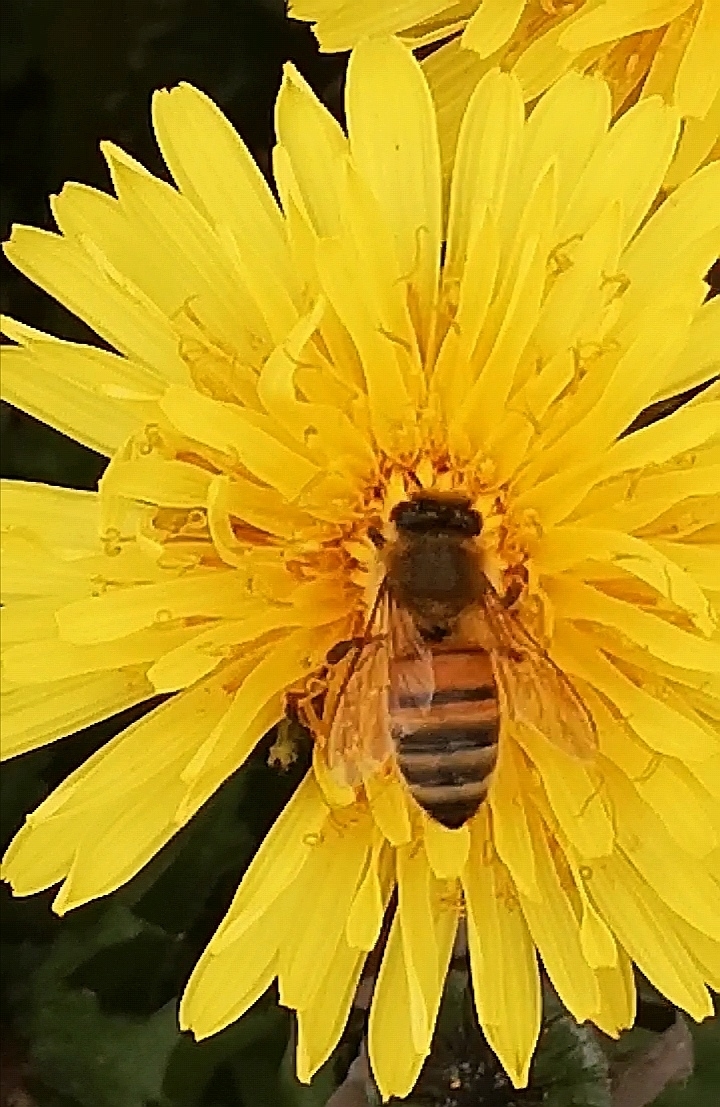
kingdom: Animalia
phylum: Arthropoda
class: Insecta
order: Hymenoptera
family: Apidae
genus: Apis
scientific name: Apis mellifera
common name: Honey bee
